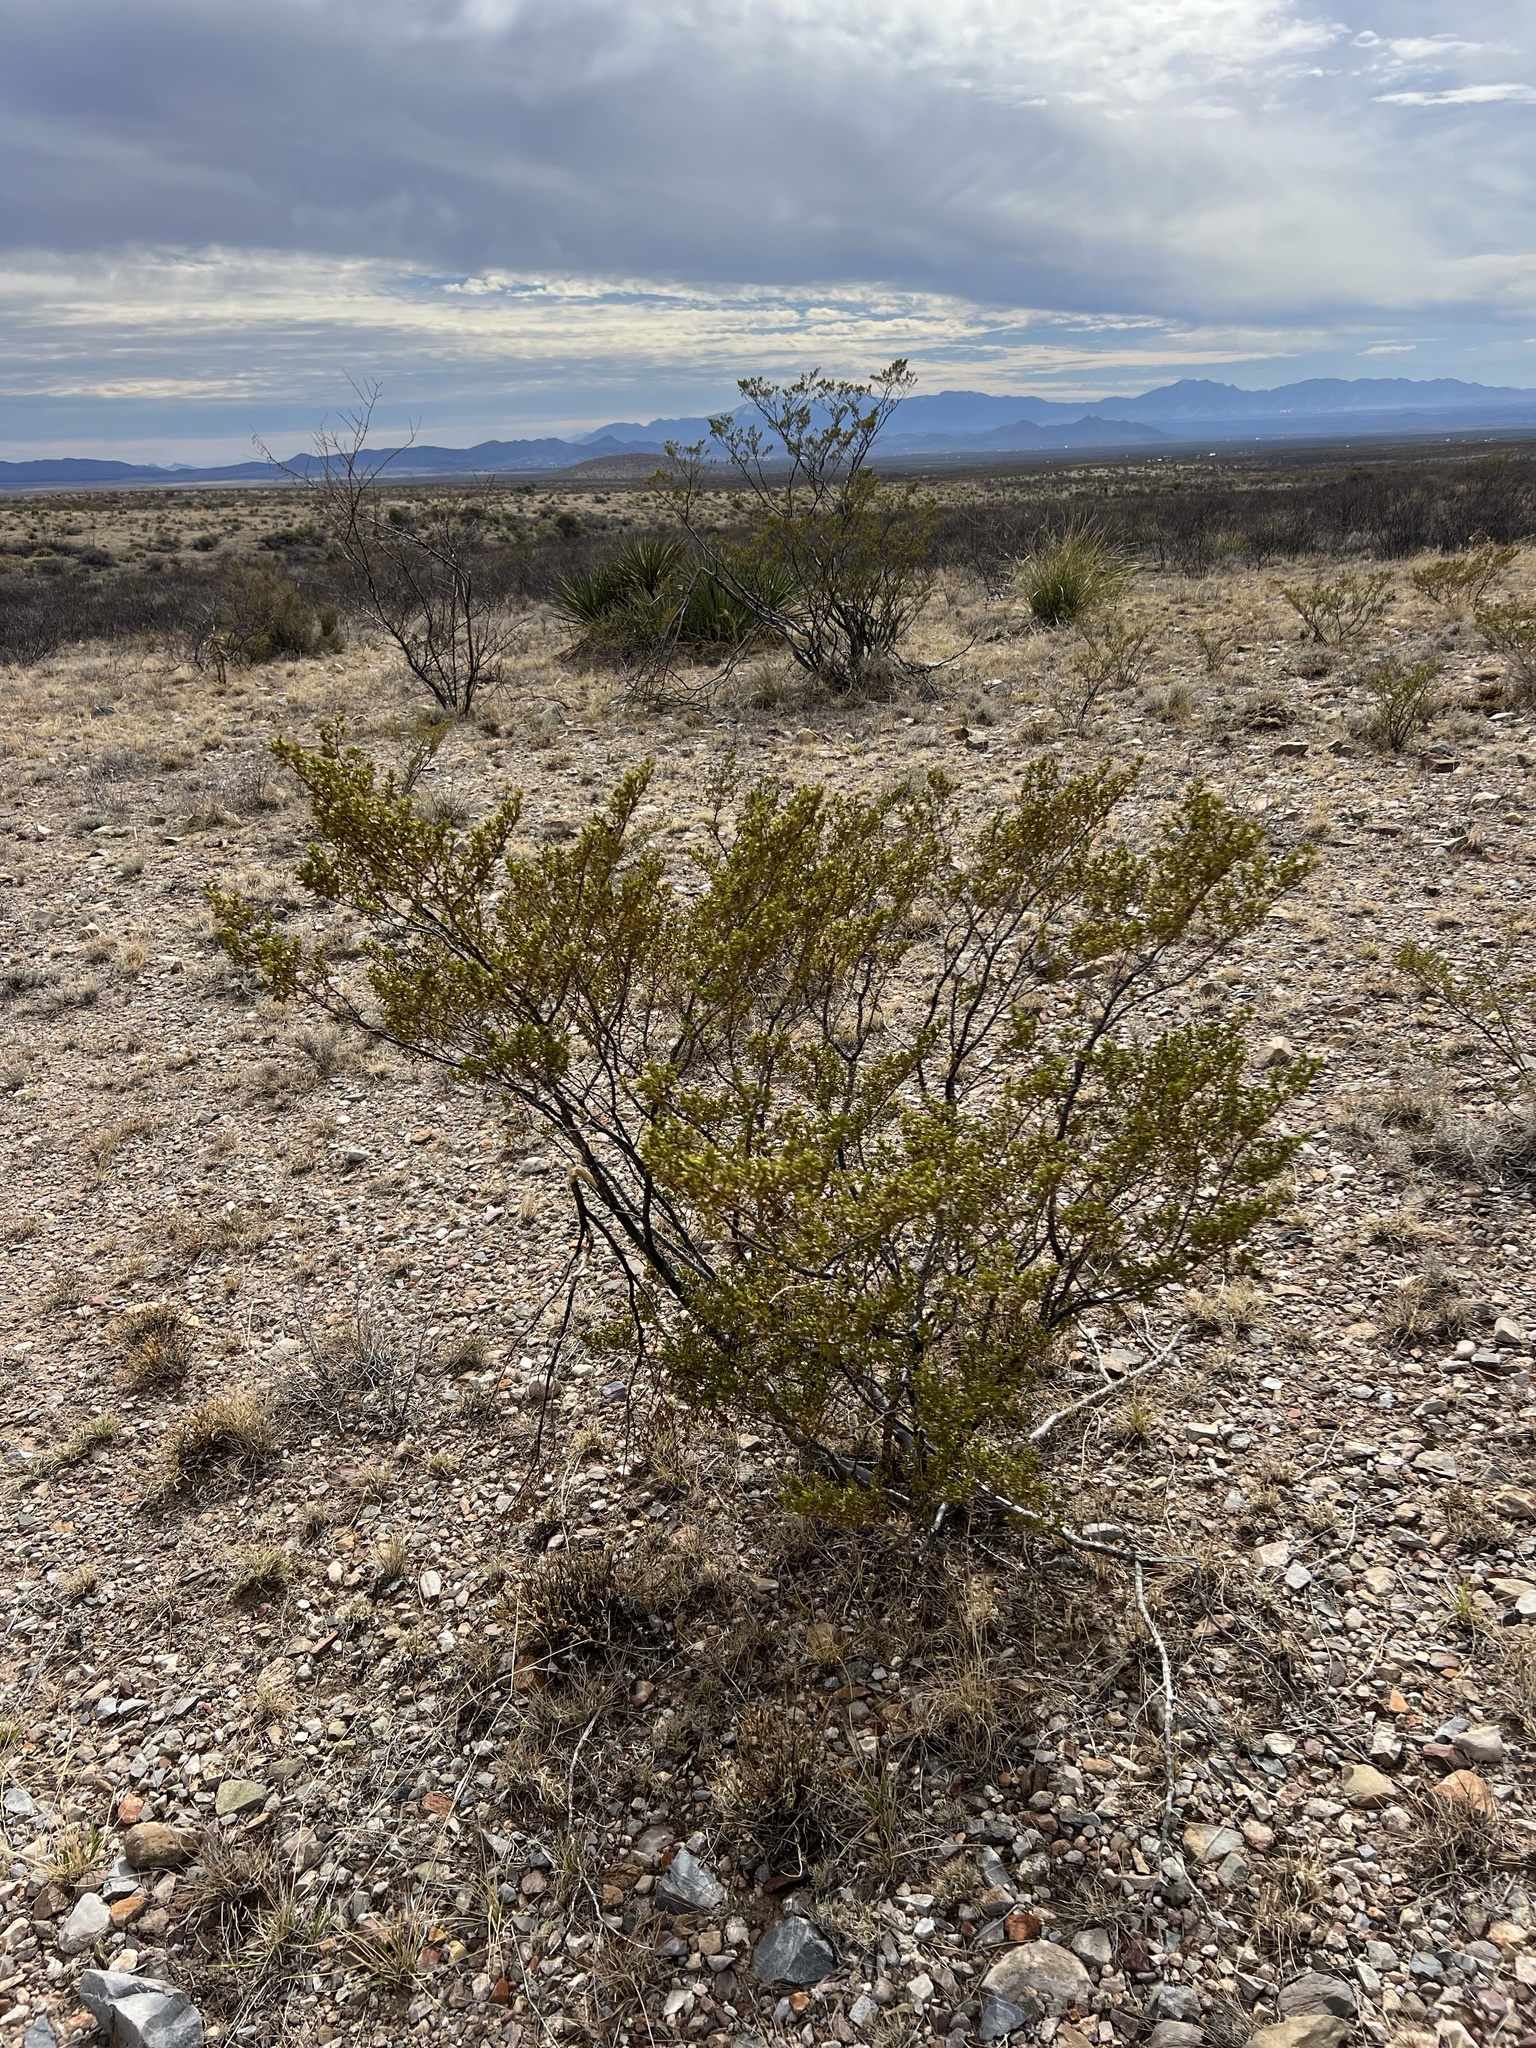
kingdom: Plantae
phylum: Tracheophyta
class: Magnoliopsida
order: Zygophyllales
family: Zygophyllaceae
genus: Larrea
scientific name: Larrea tridentata
